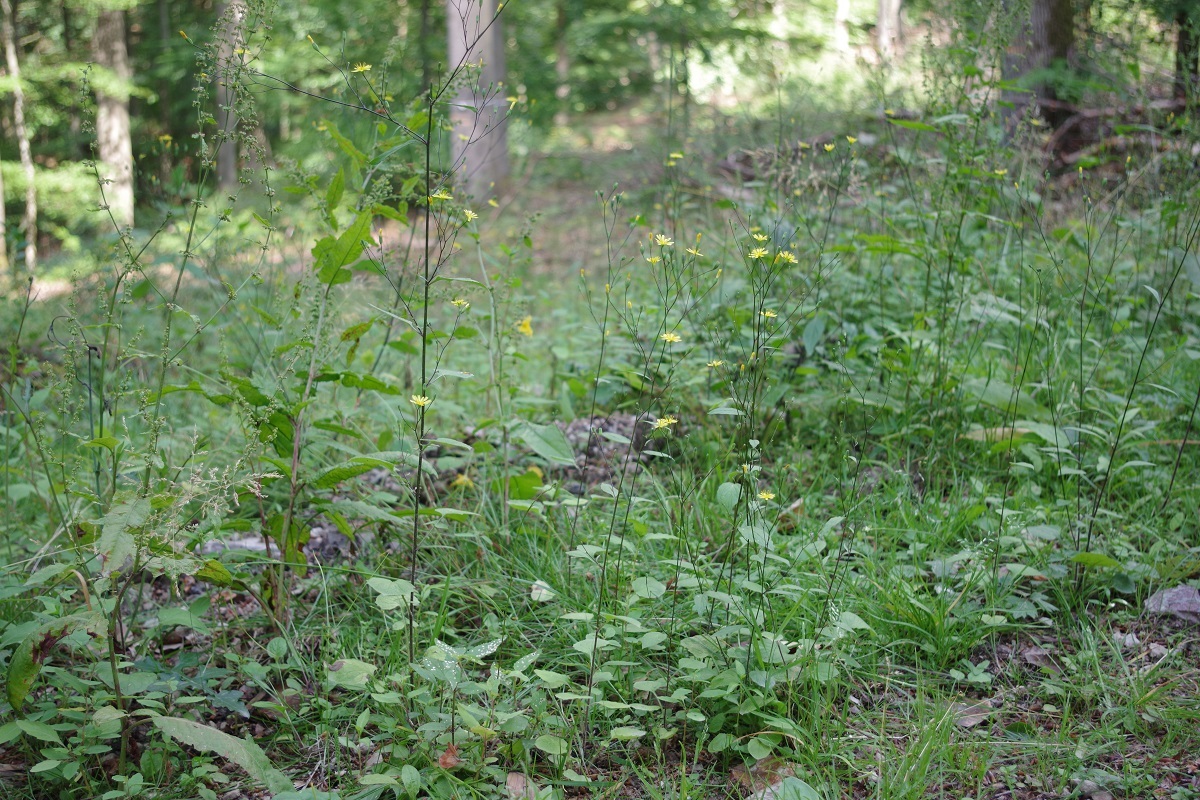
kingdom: Plantae
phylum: Tracheophyta
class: Magnoliopsida
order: Asterales
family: Asteraceae
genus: Lapsana
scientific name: Lapsana communis
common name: Nipplewort
